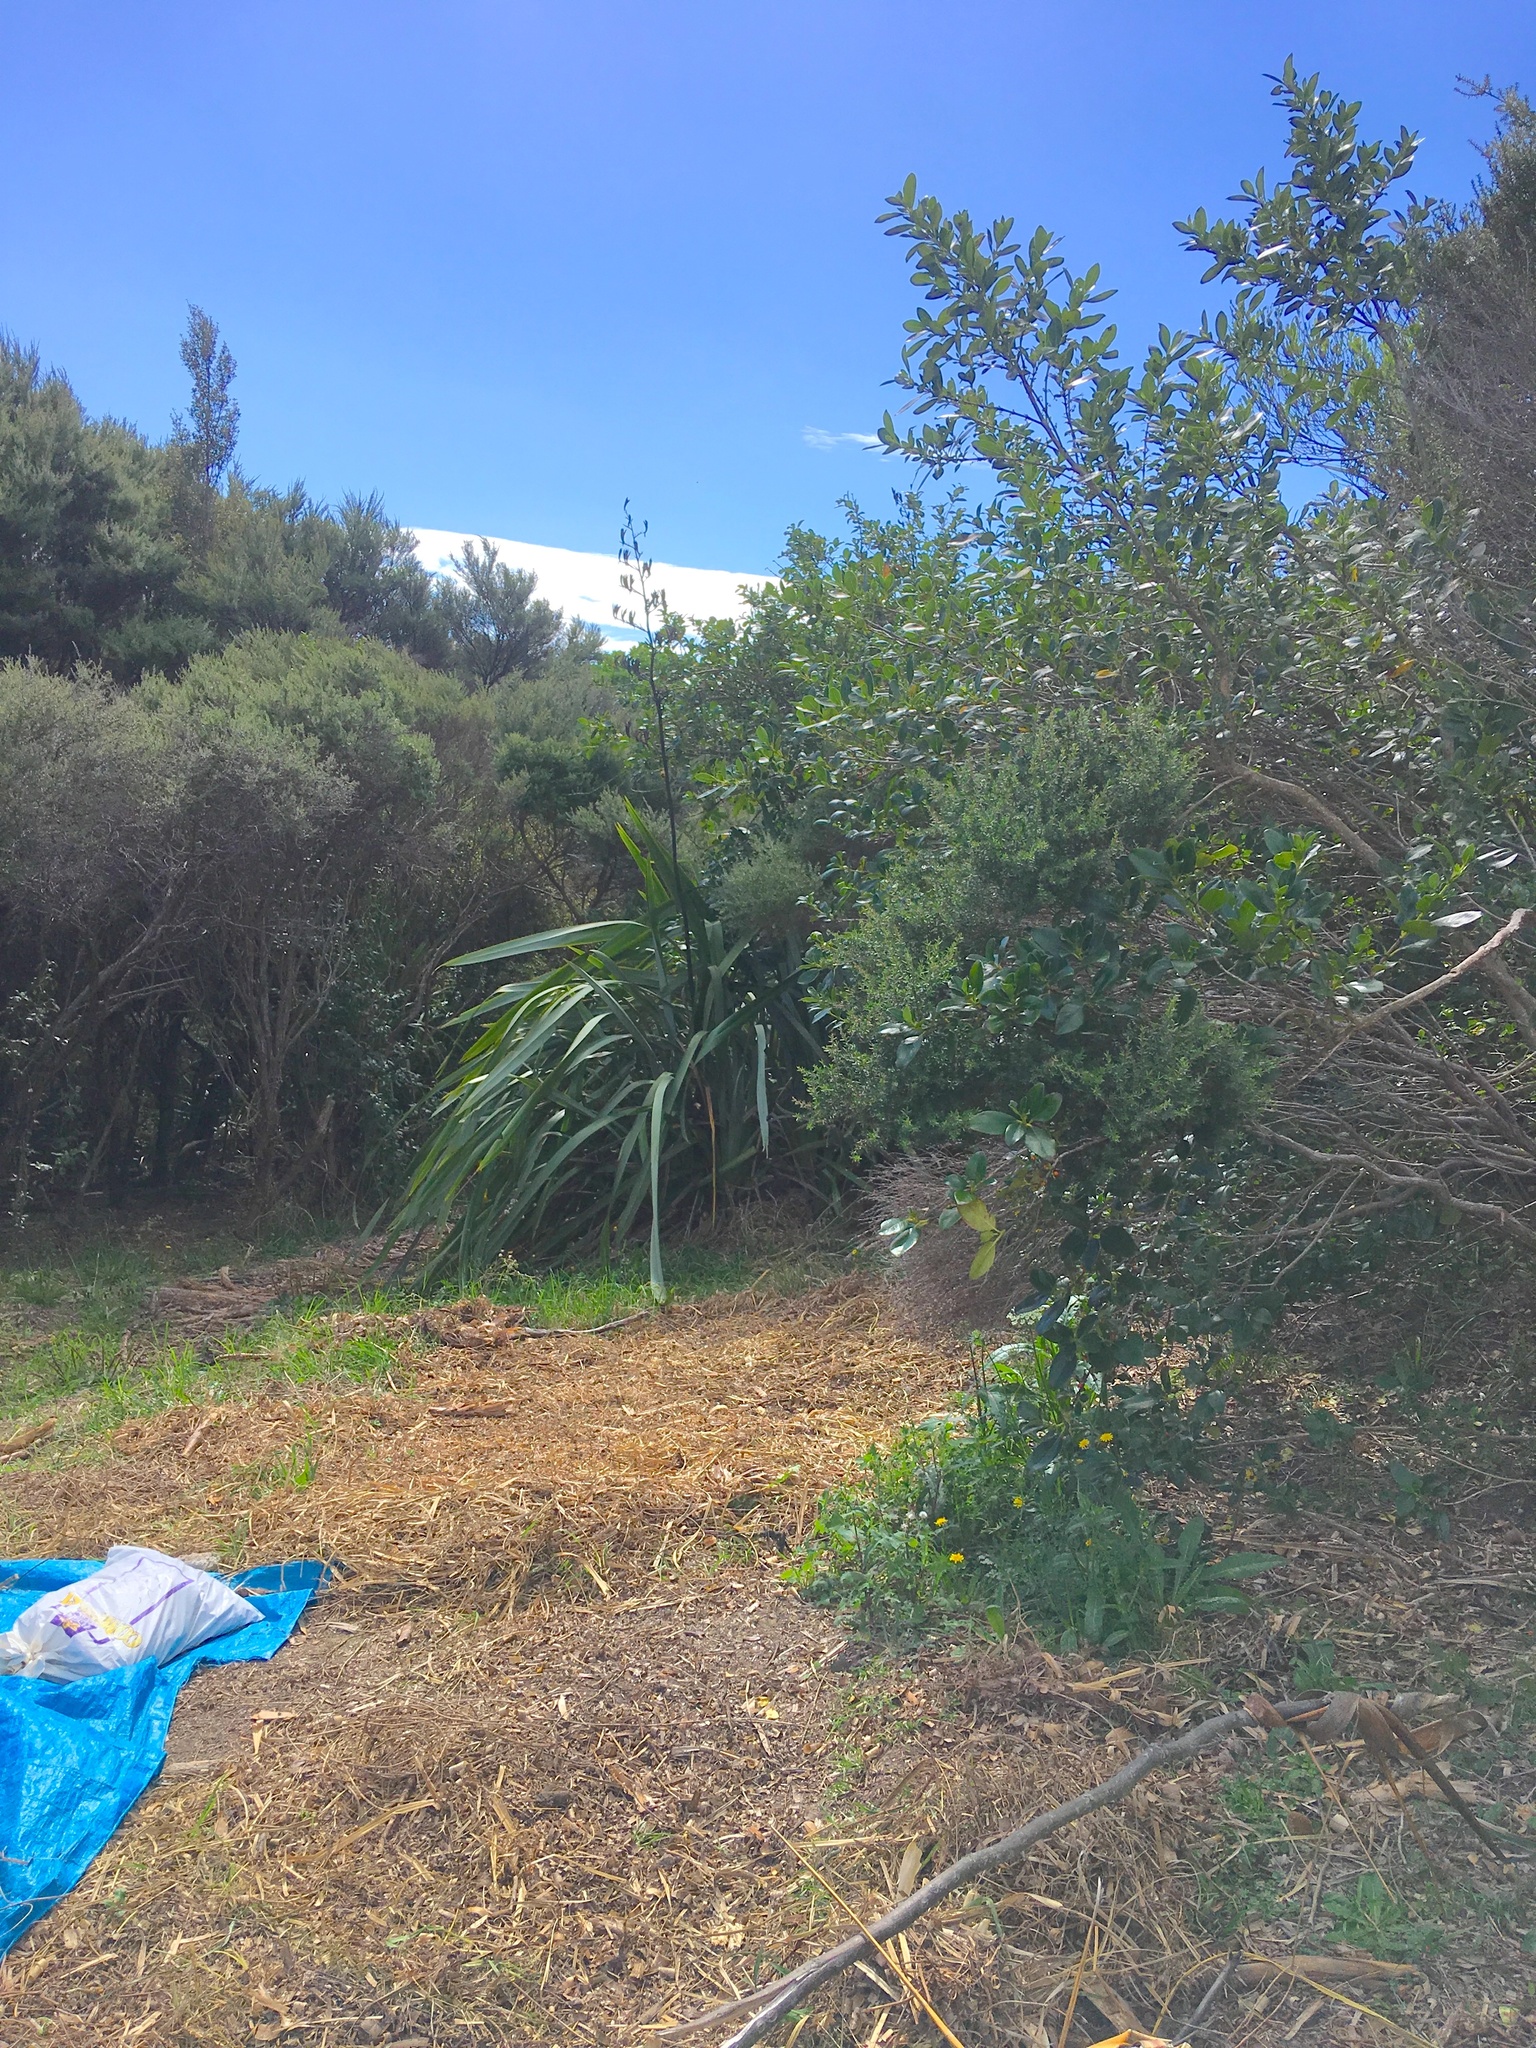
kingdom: Plantae
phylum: Tracheophyta
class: Magnoliopsida
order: Asterales
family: Asteraceae
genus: Helminthotheca
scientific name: Helminthotheca echioides
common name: Ox-tongue
